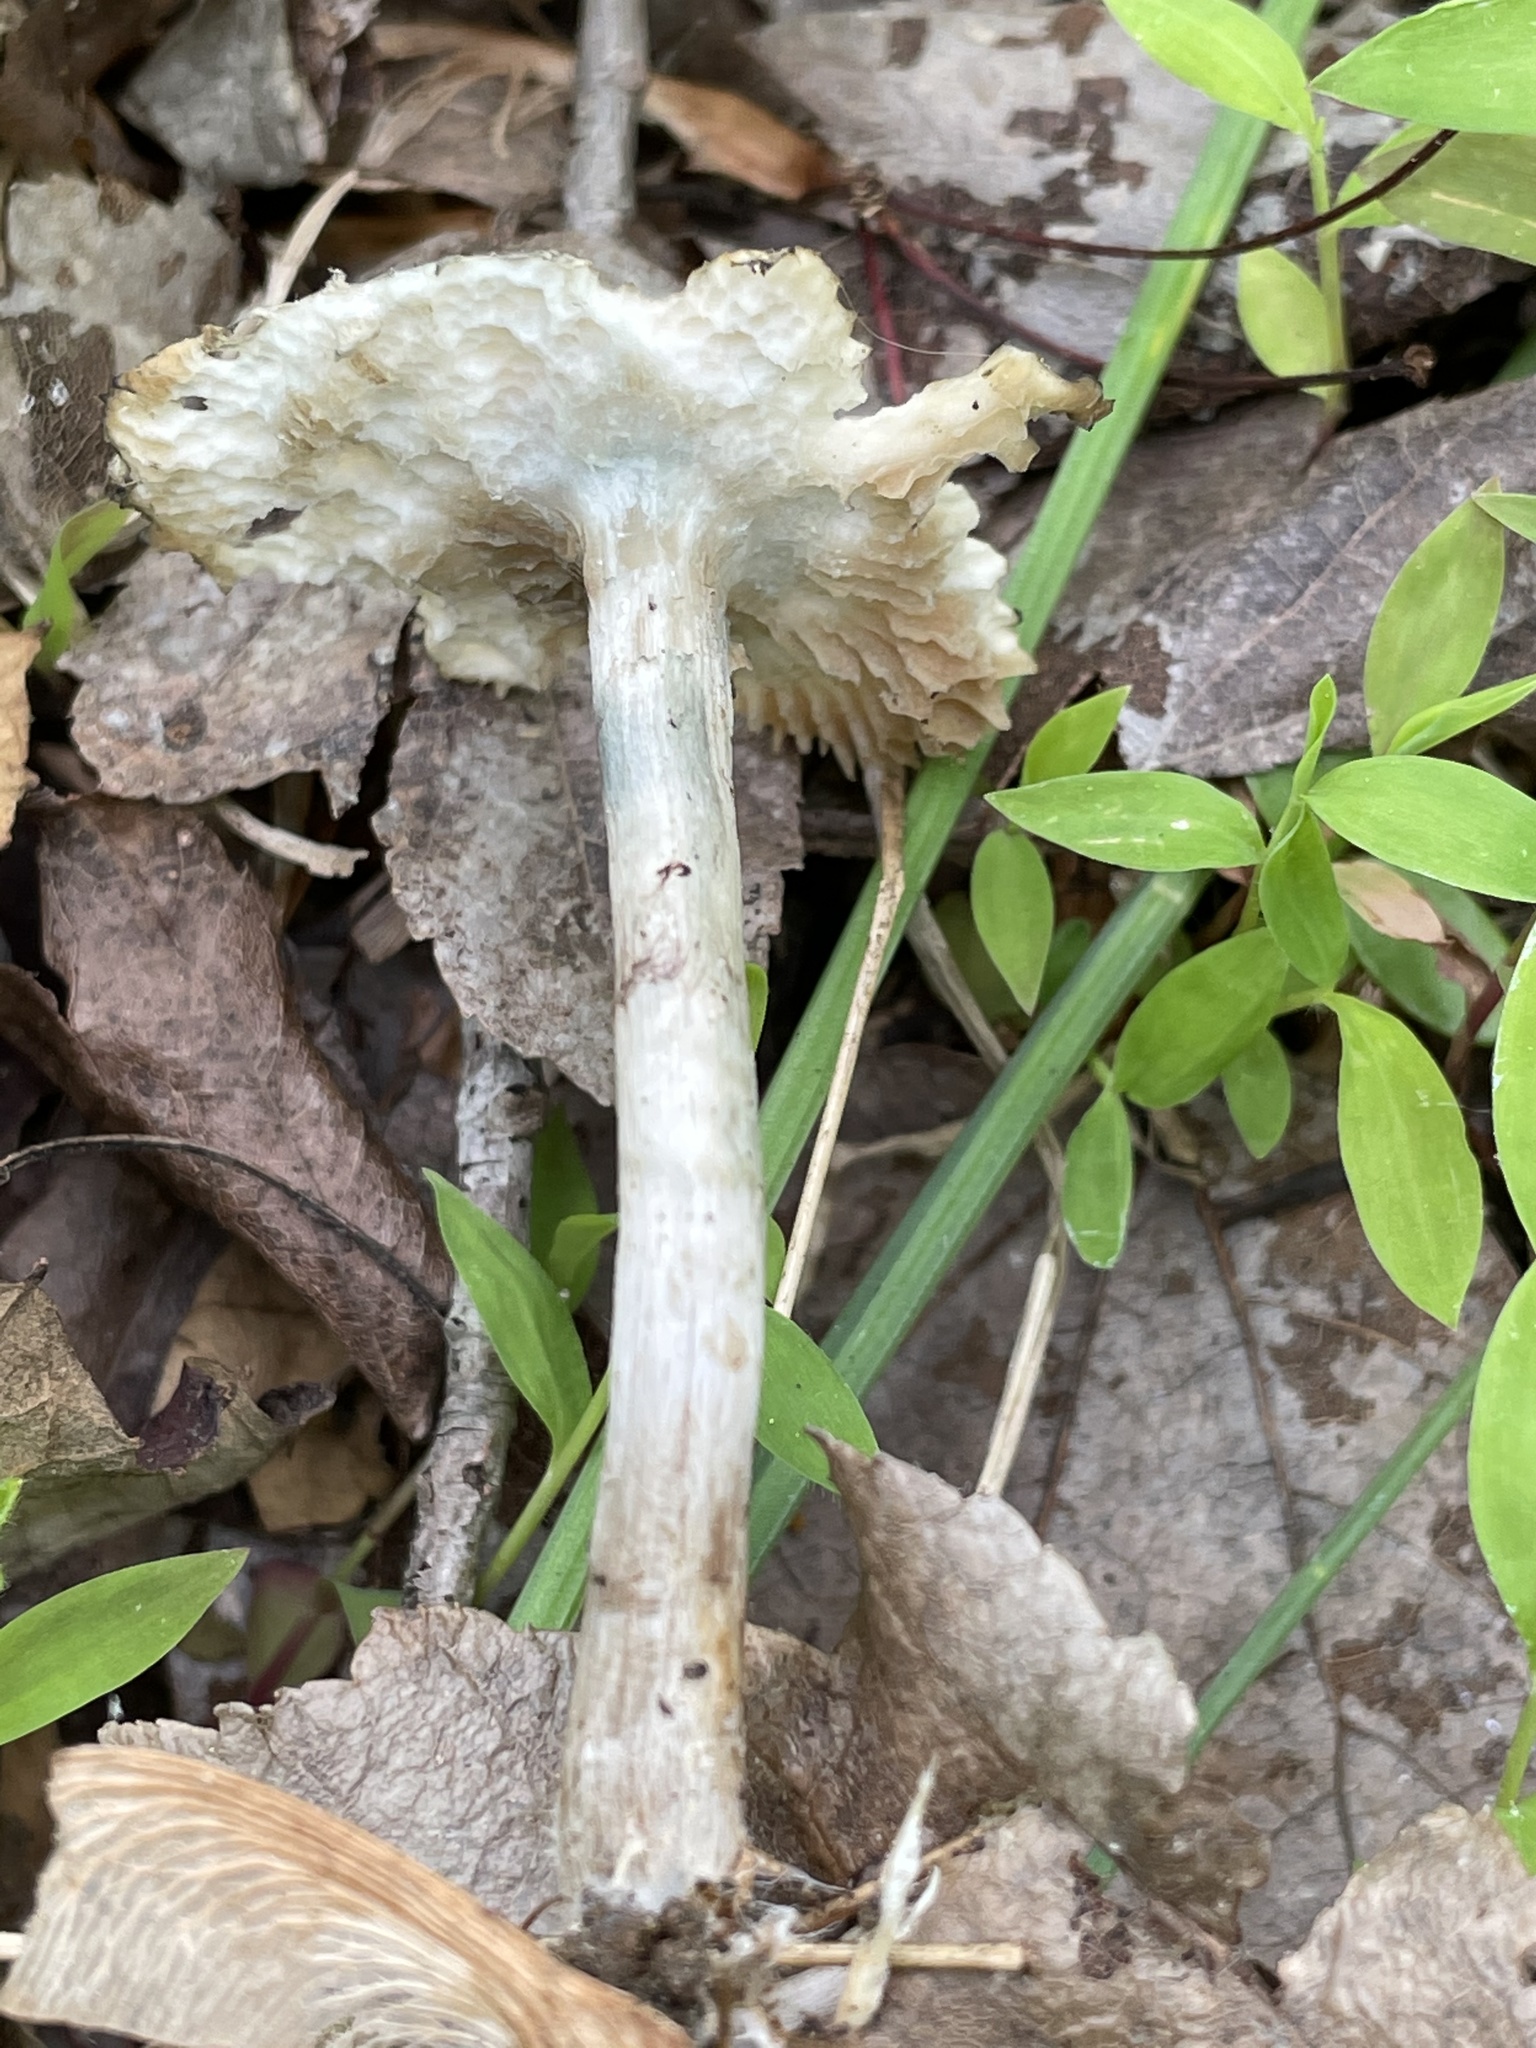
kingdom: Fungi
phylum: Basidiomycota
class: Agaricomycetes
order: Agaricales
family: Hymenogastraceae
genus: Psilocybe
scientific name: Psilocybe ovoideocystidiata
